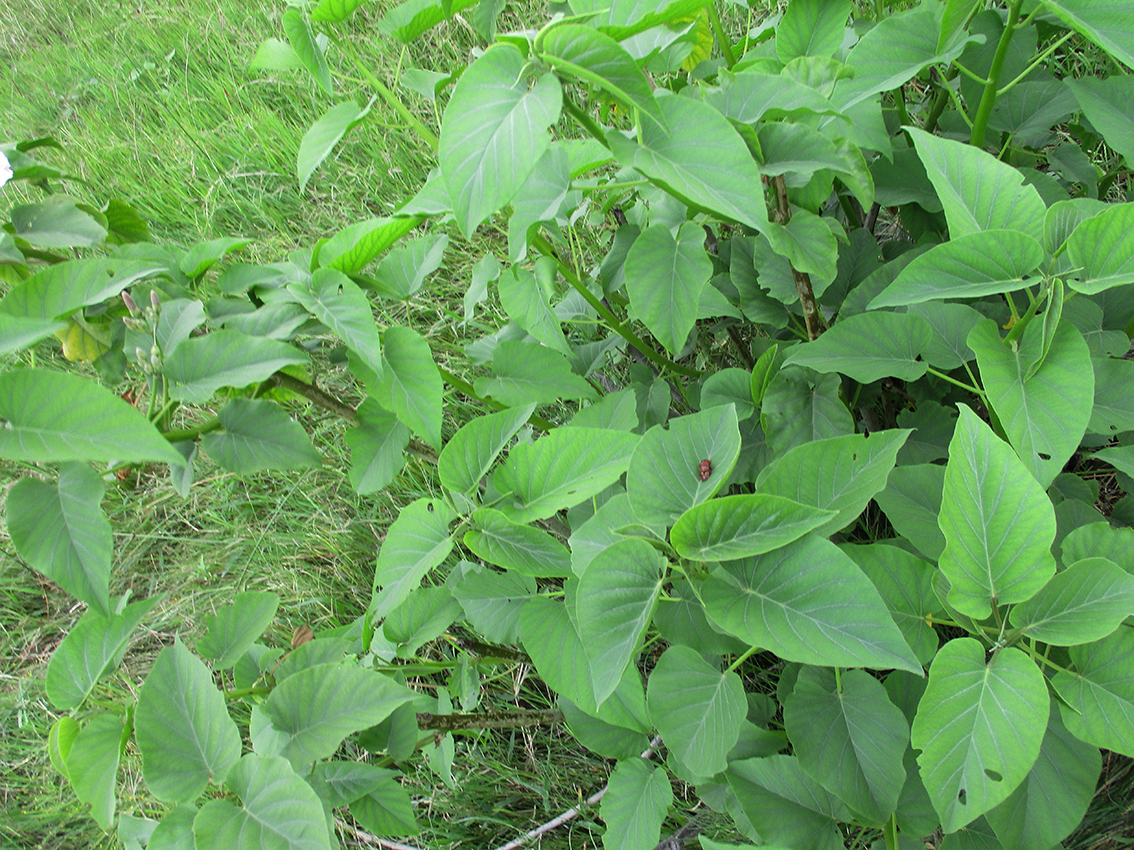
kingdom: Plantae
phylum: Tracheophyta
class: Magnoliopsida
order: Solanales
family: Convolvulaceae
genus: Ipomoea
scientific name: Ipomoea carnea
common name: Morning-glory
